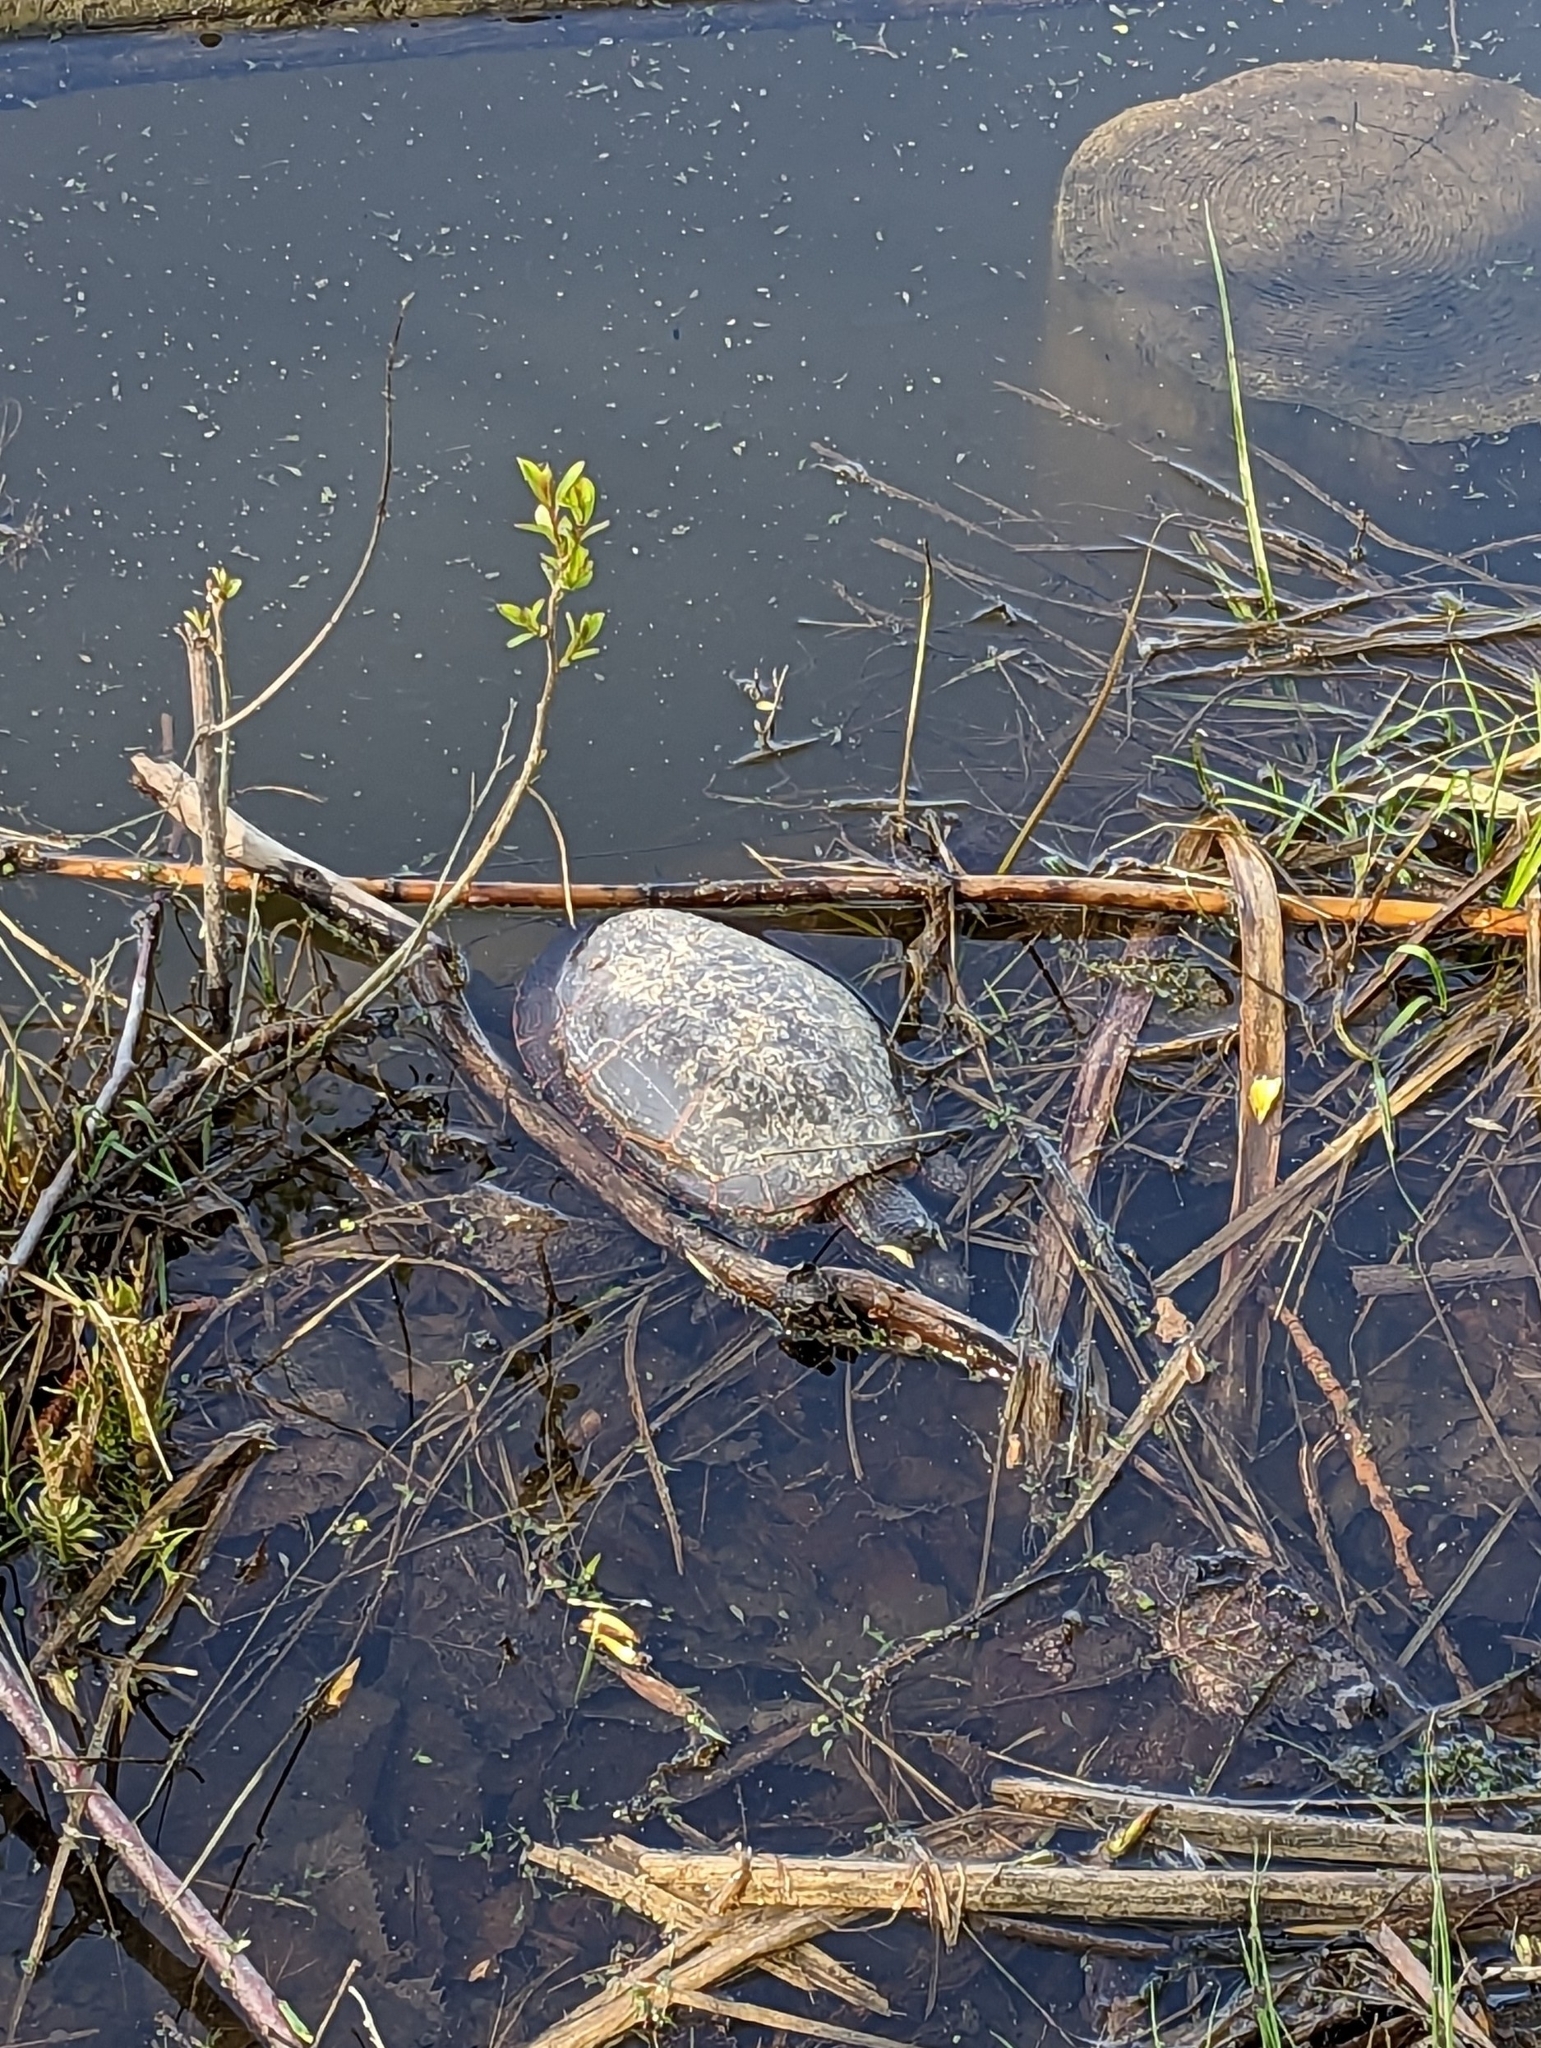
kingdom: Animalia
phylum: Chordata
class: Testudines
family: Emydidae
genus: Chrysemys
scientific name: Chrysemys picta
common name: Painted turtle
